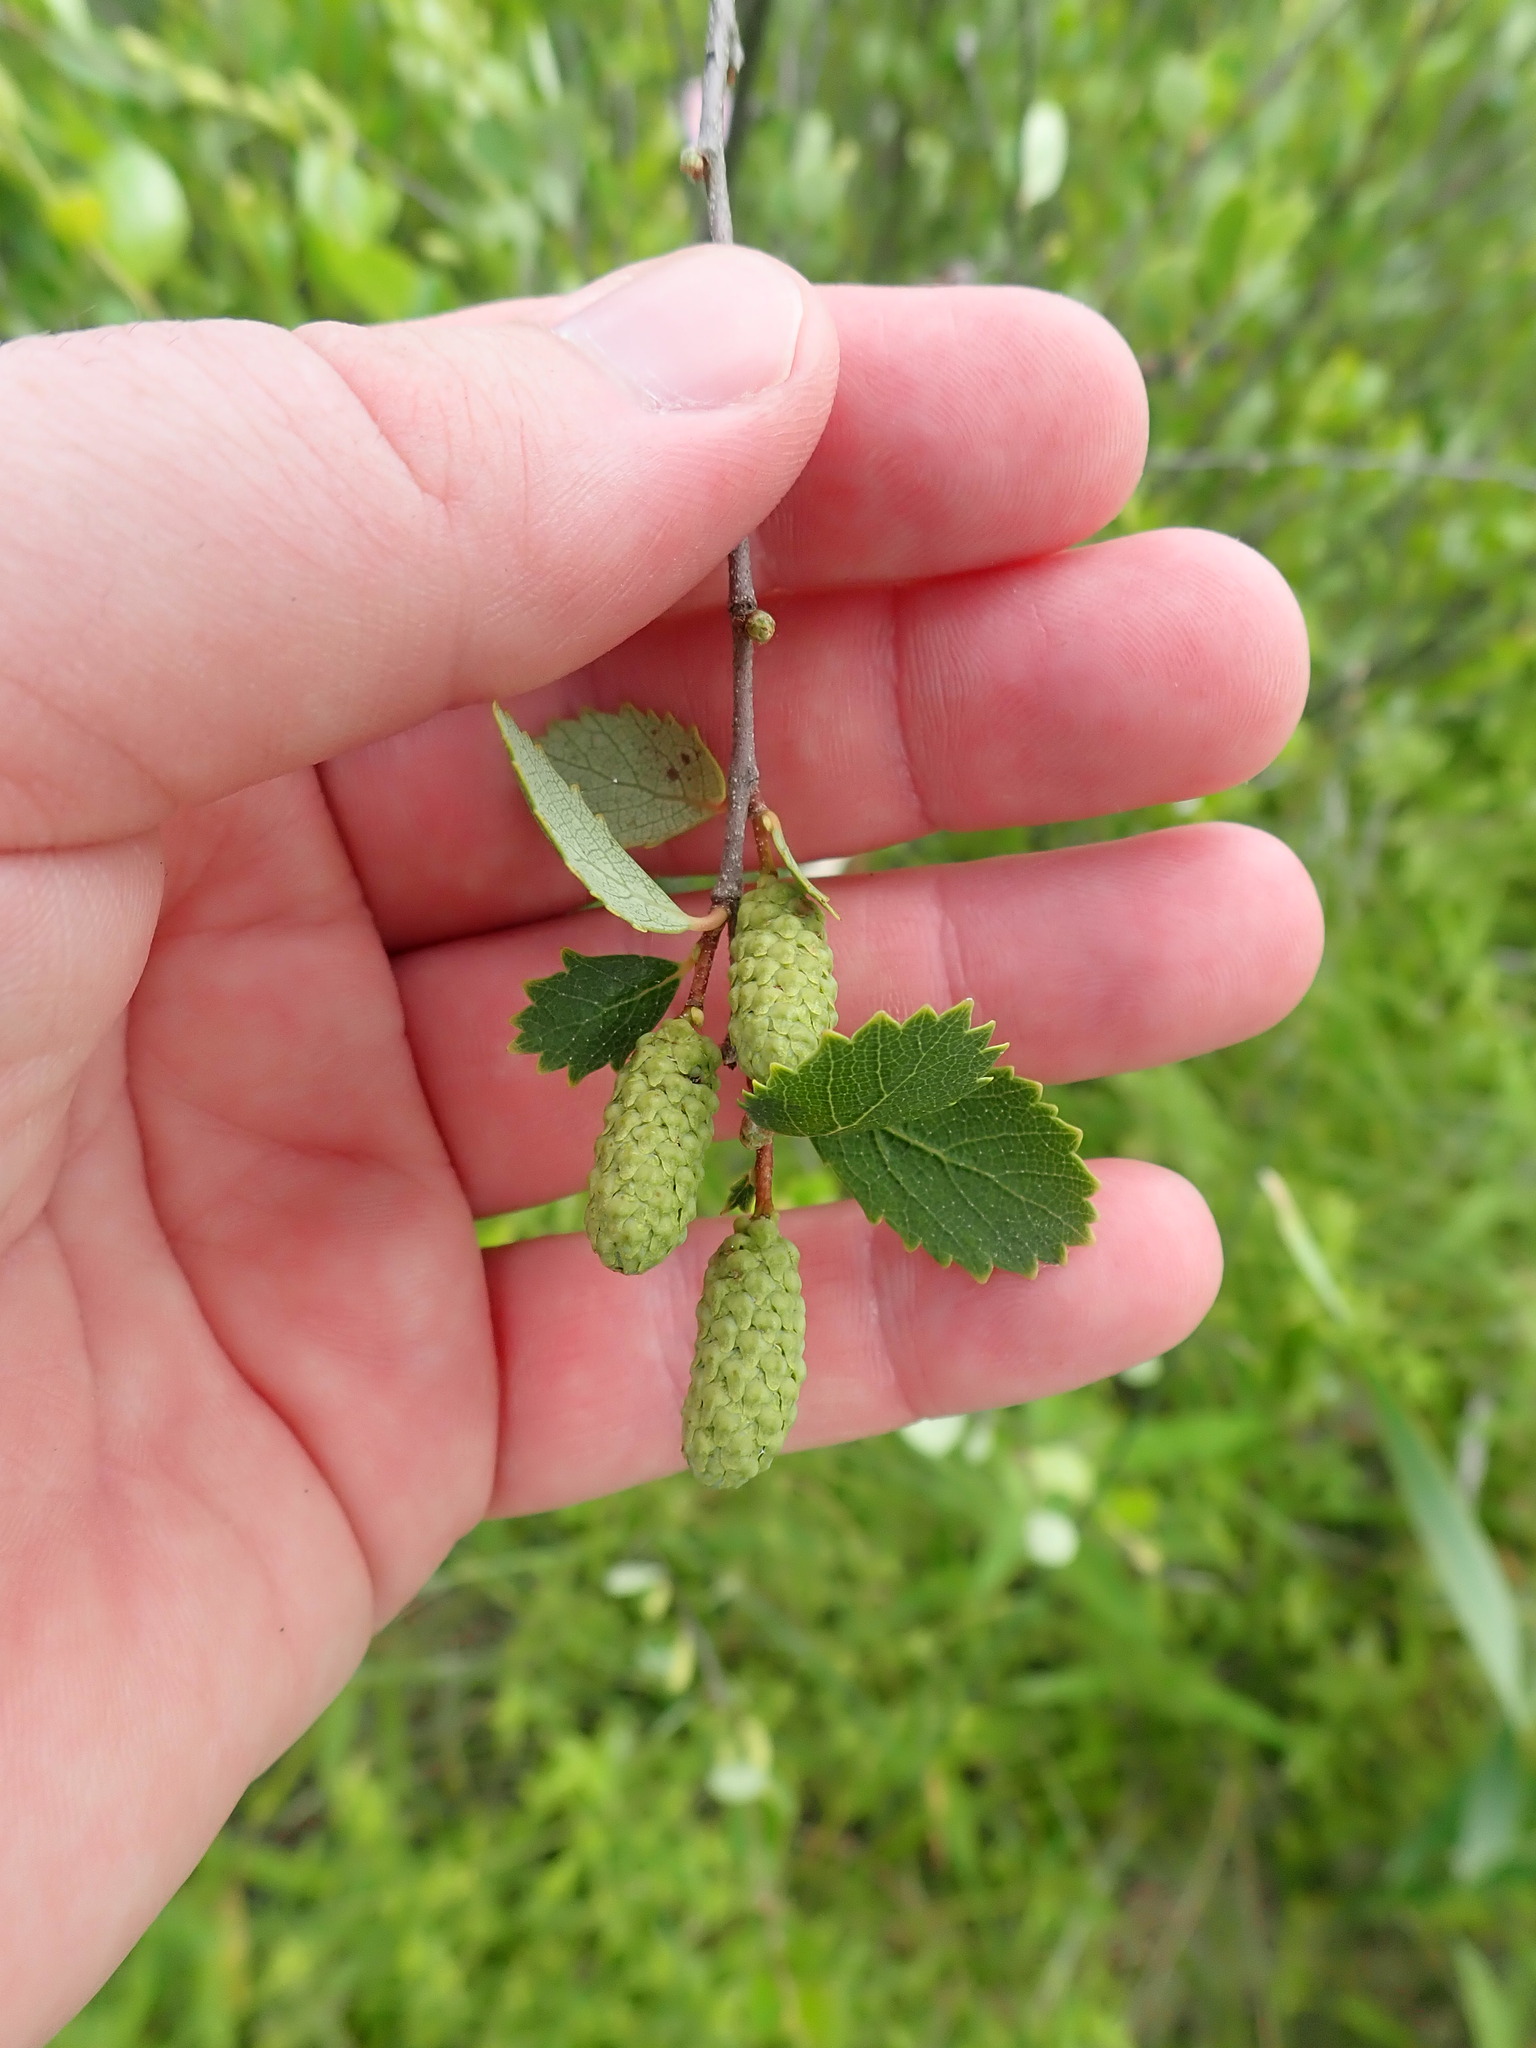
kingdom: Plantae
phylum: Tracheophyta
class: Magnoliopsida
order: Fagales
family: Betulaceae
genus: Betula
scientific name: Betula pumila
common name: Bog birch
